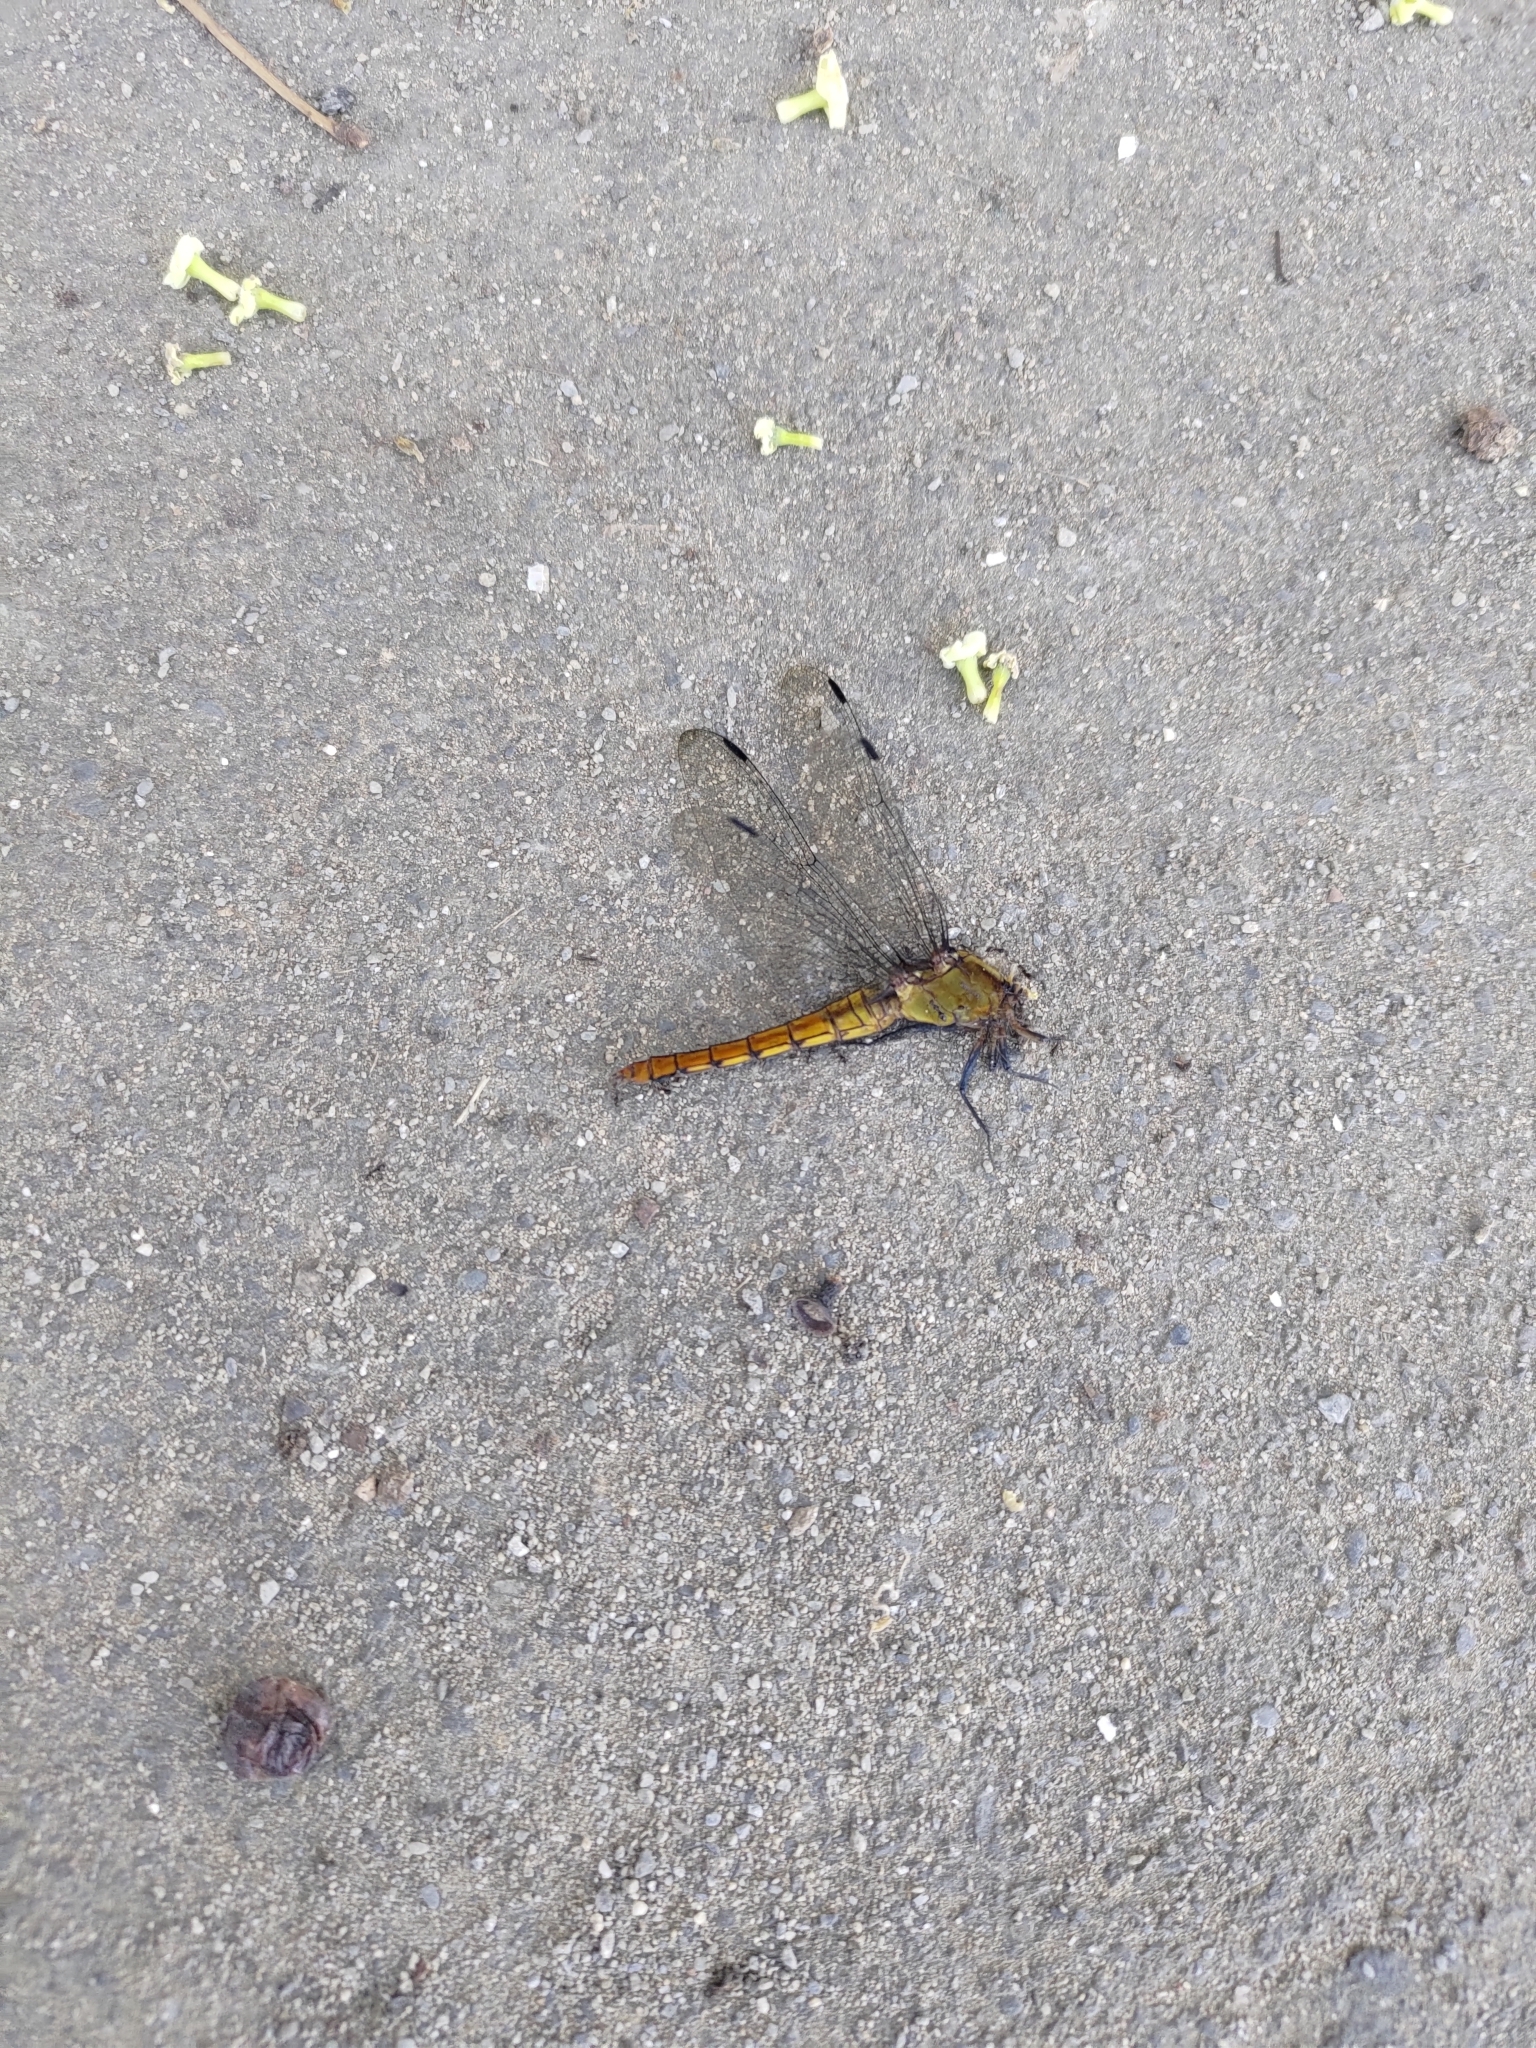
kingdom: Animalia
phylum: Arthropoda
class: Insecta
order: Odonata
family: Libellulidae
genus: Orthetrum
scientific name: Orthetrum pruinosum
